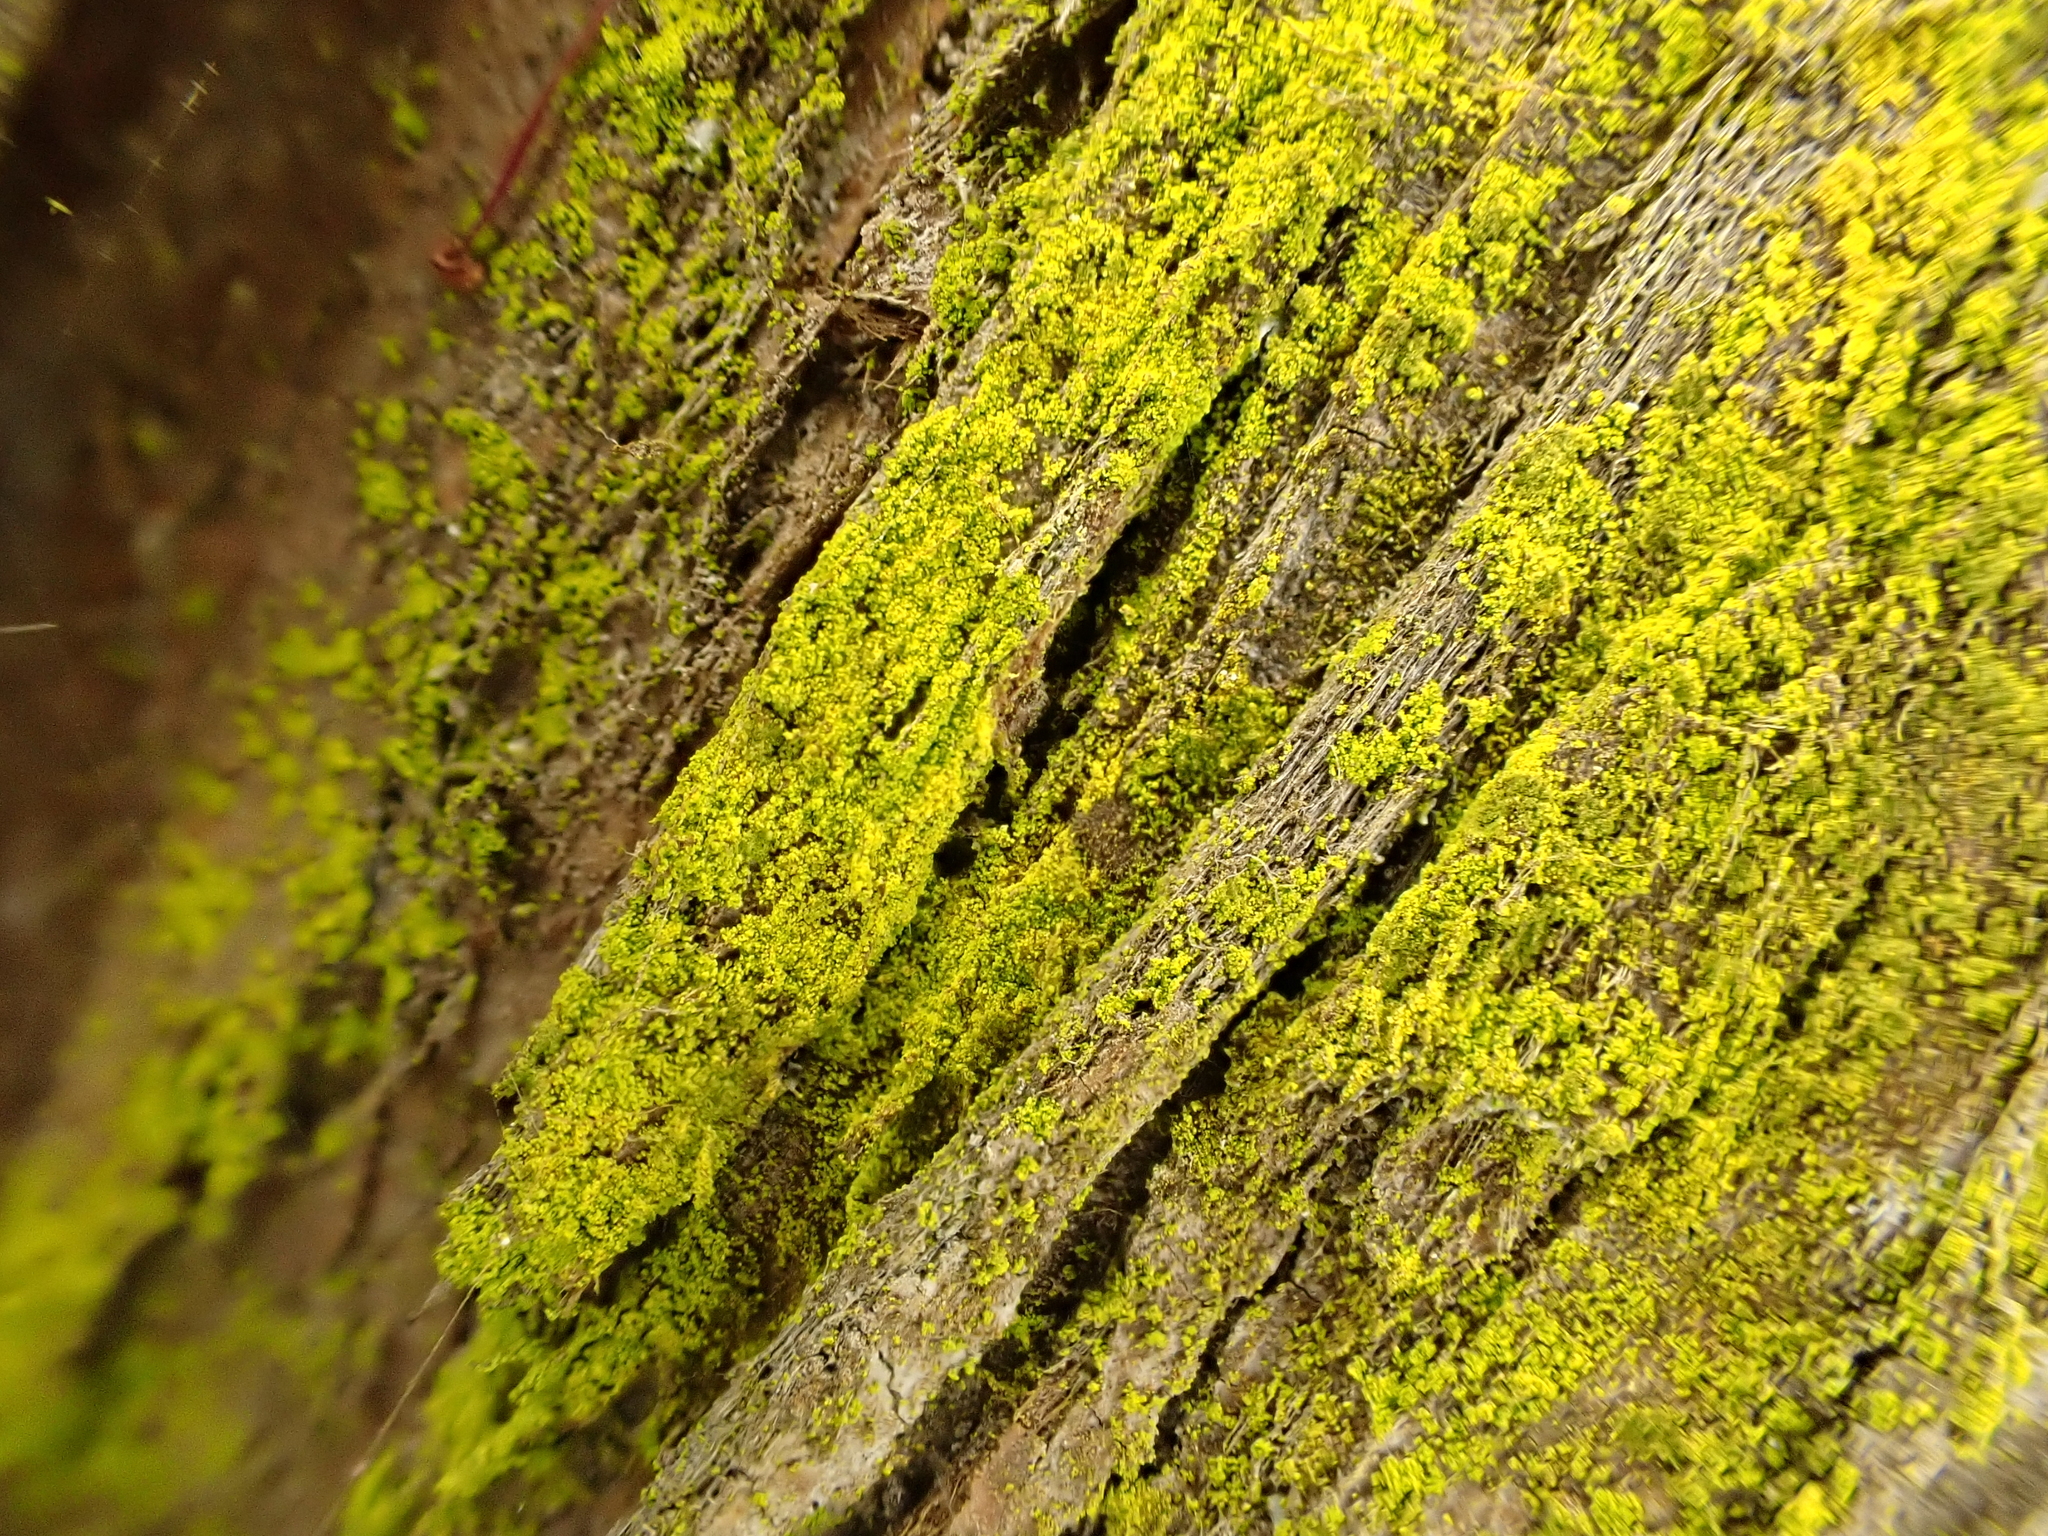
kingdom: Fungi
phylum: Ascomycota
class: Arthoniomycetes
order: Arthoniales
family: Chrysotrichaceae
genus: Chrysothrix
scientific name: Chrysothrix candelaris
